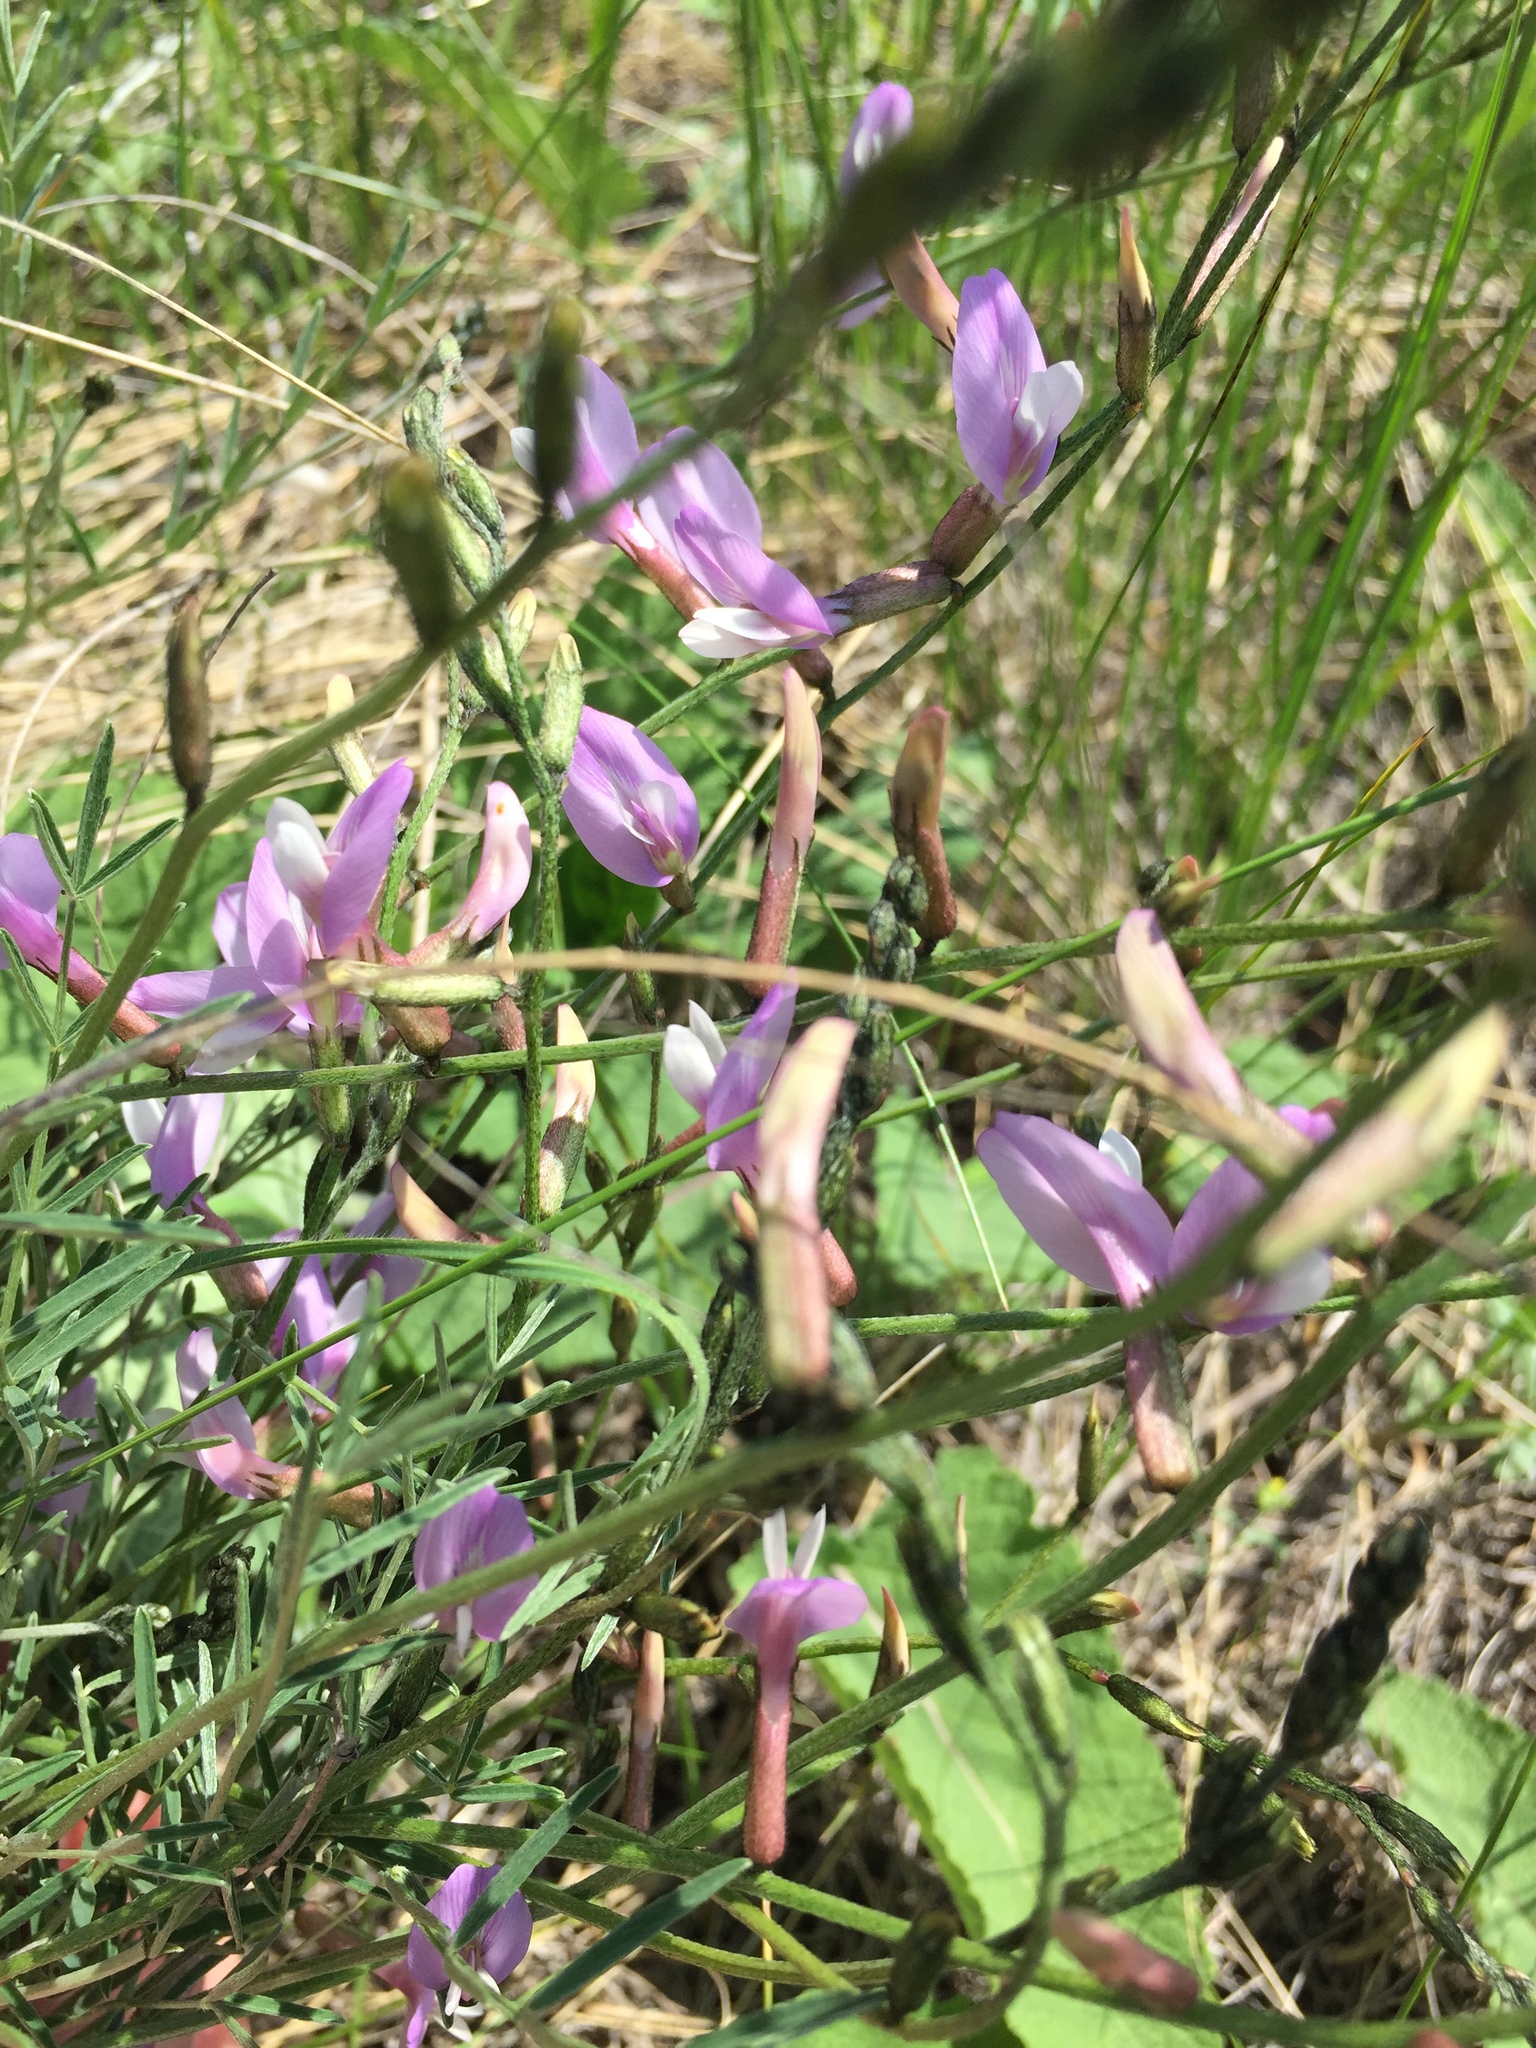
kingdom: Plantae
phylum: Tracheophyta
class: Magnoliopsida
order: Fabales
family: Fabaceae
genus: Astragalus
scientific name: Astragalus macropus
